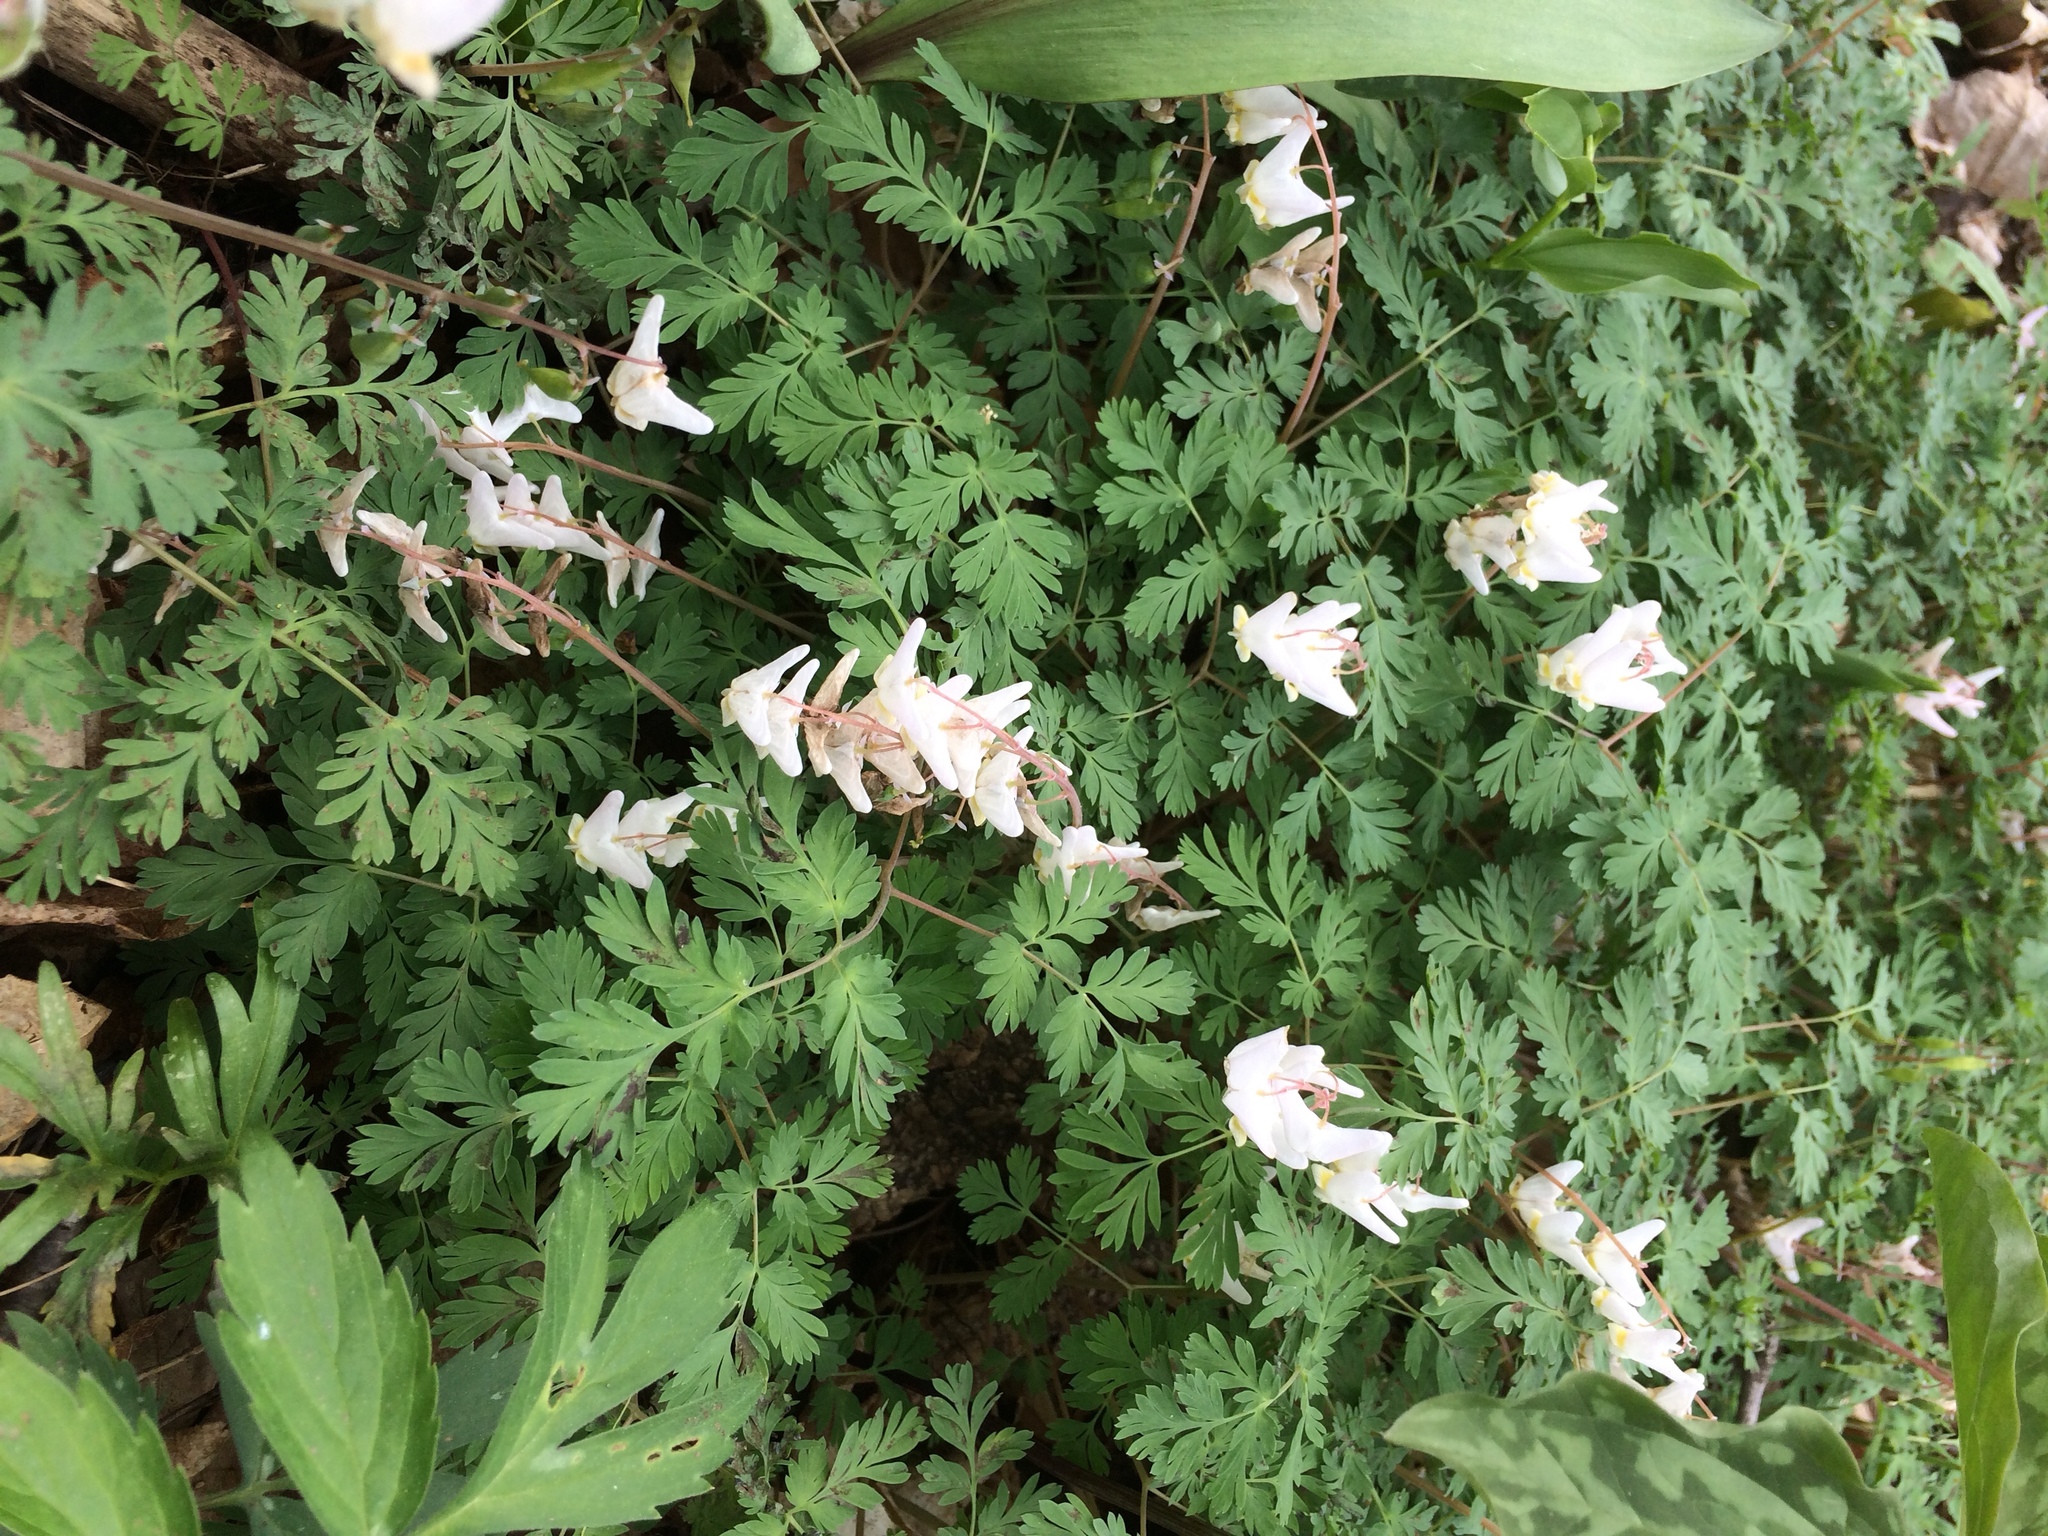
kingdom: Plantae
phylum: Tracheophyta
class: Magnoliopsida
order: Ranunculales
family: Papaveraceae
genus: Dicentra
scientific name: Dicentra cucullaria
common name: Dutchman's breeches
